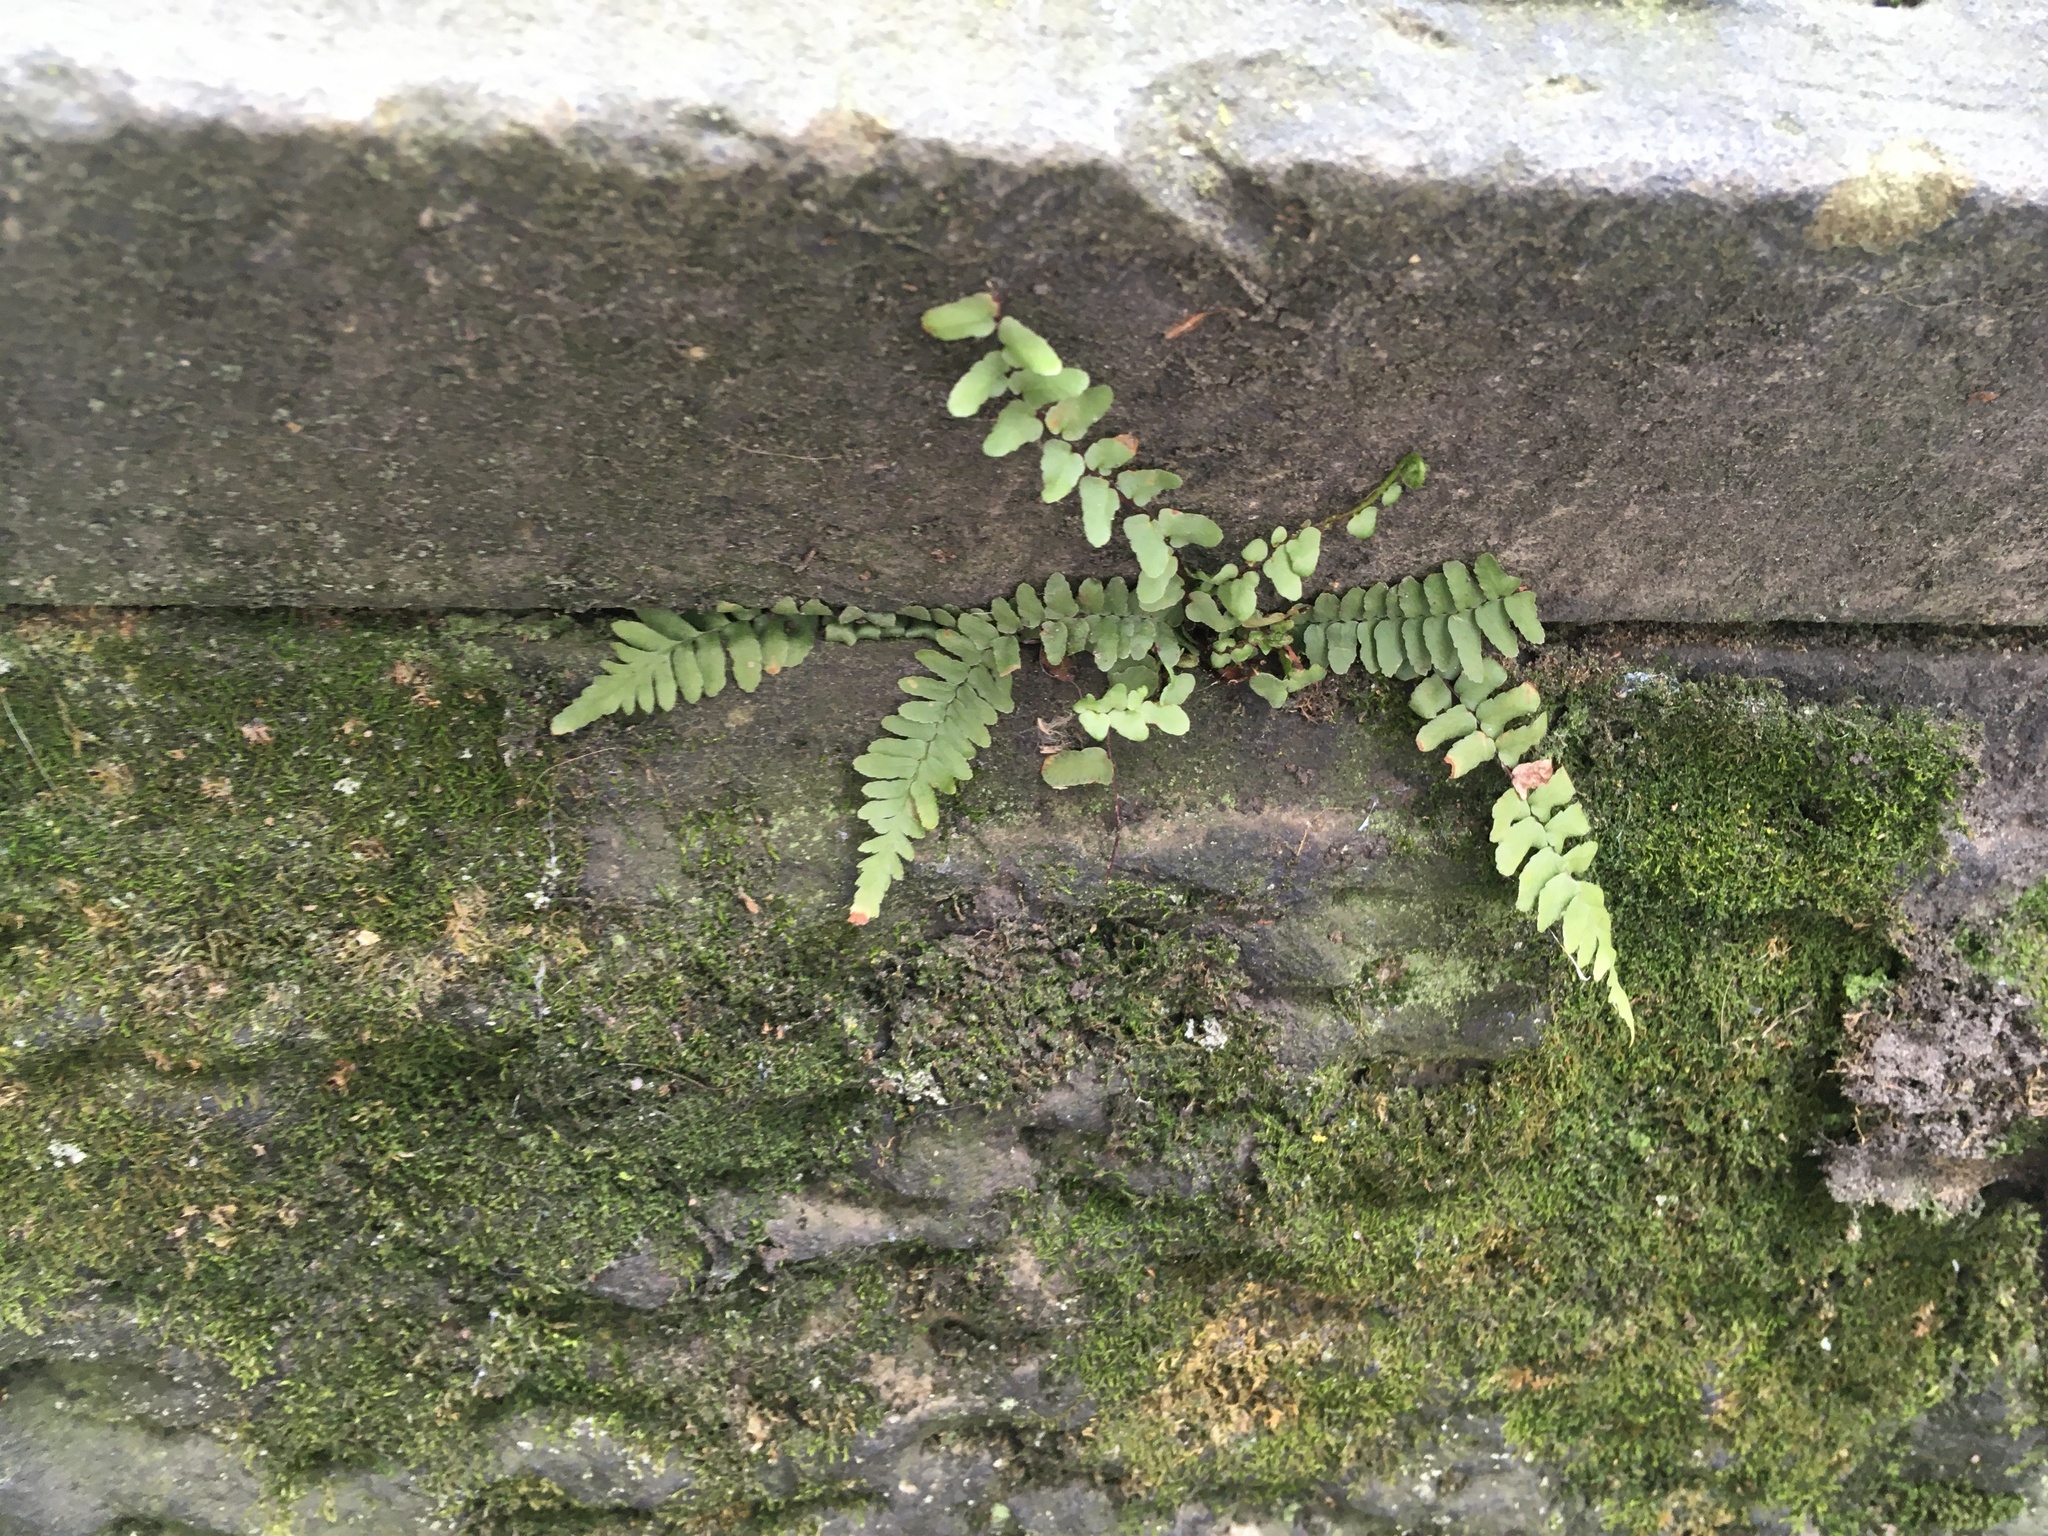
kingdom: Plantae
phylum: Tracheophyta
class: Polypodiopsida
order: Polypodiales
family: Aspleniaceae
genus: Asplenium
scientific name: Asplenium platyneuron
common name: Ebony spleenwort
